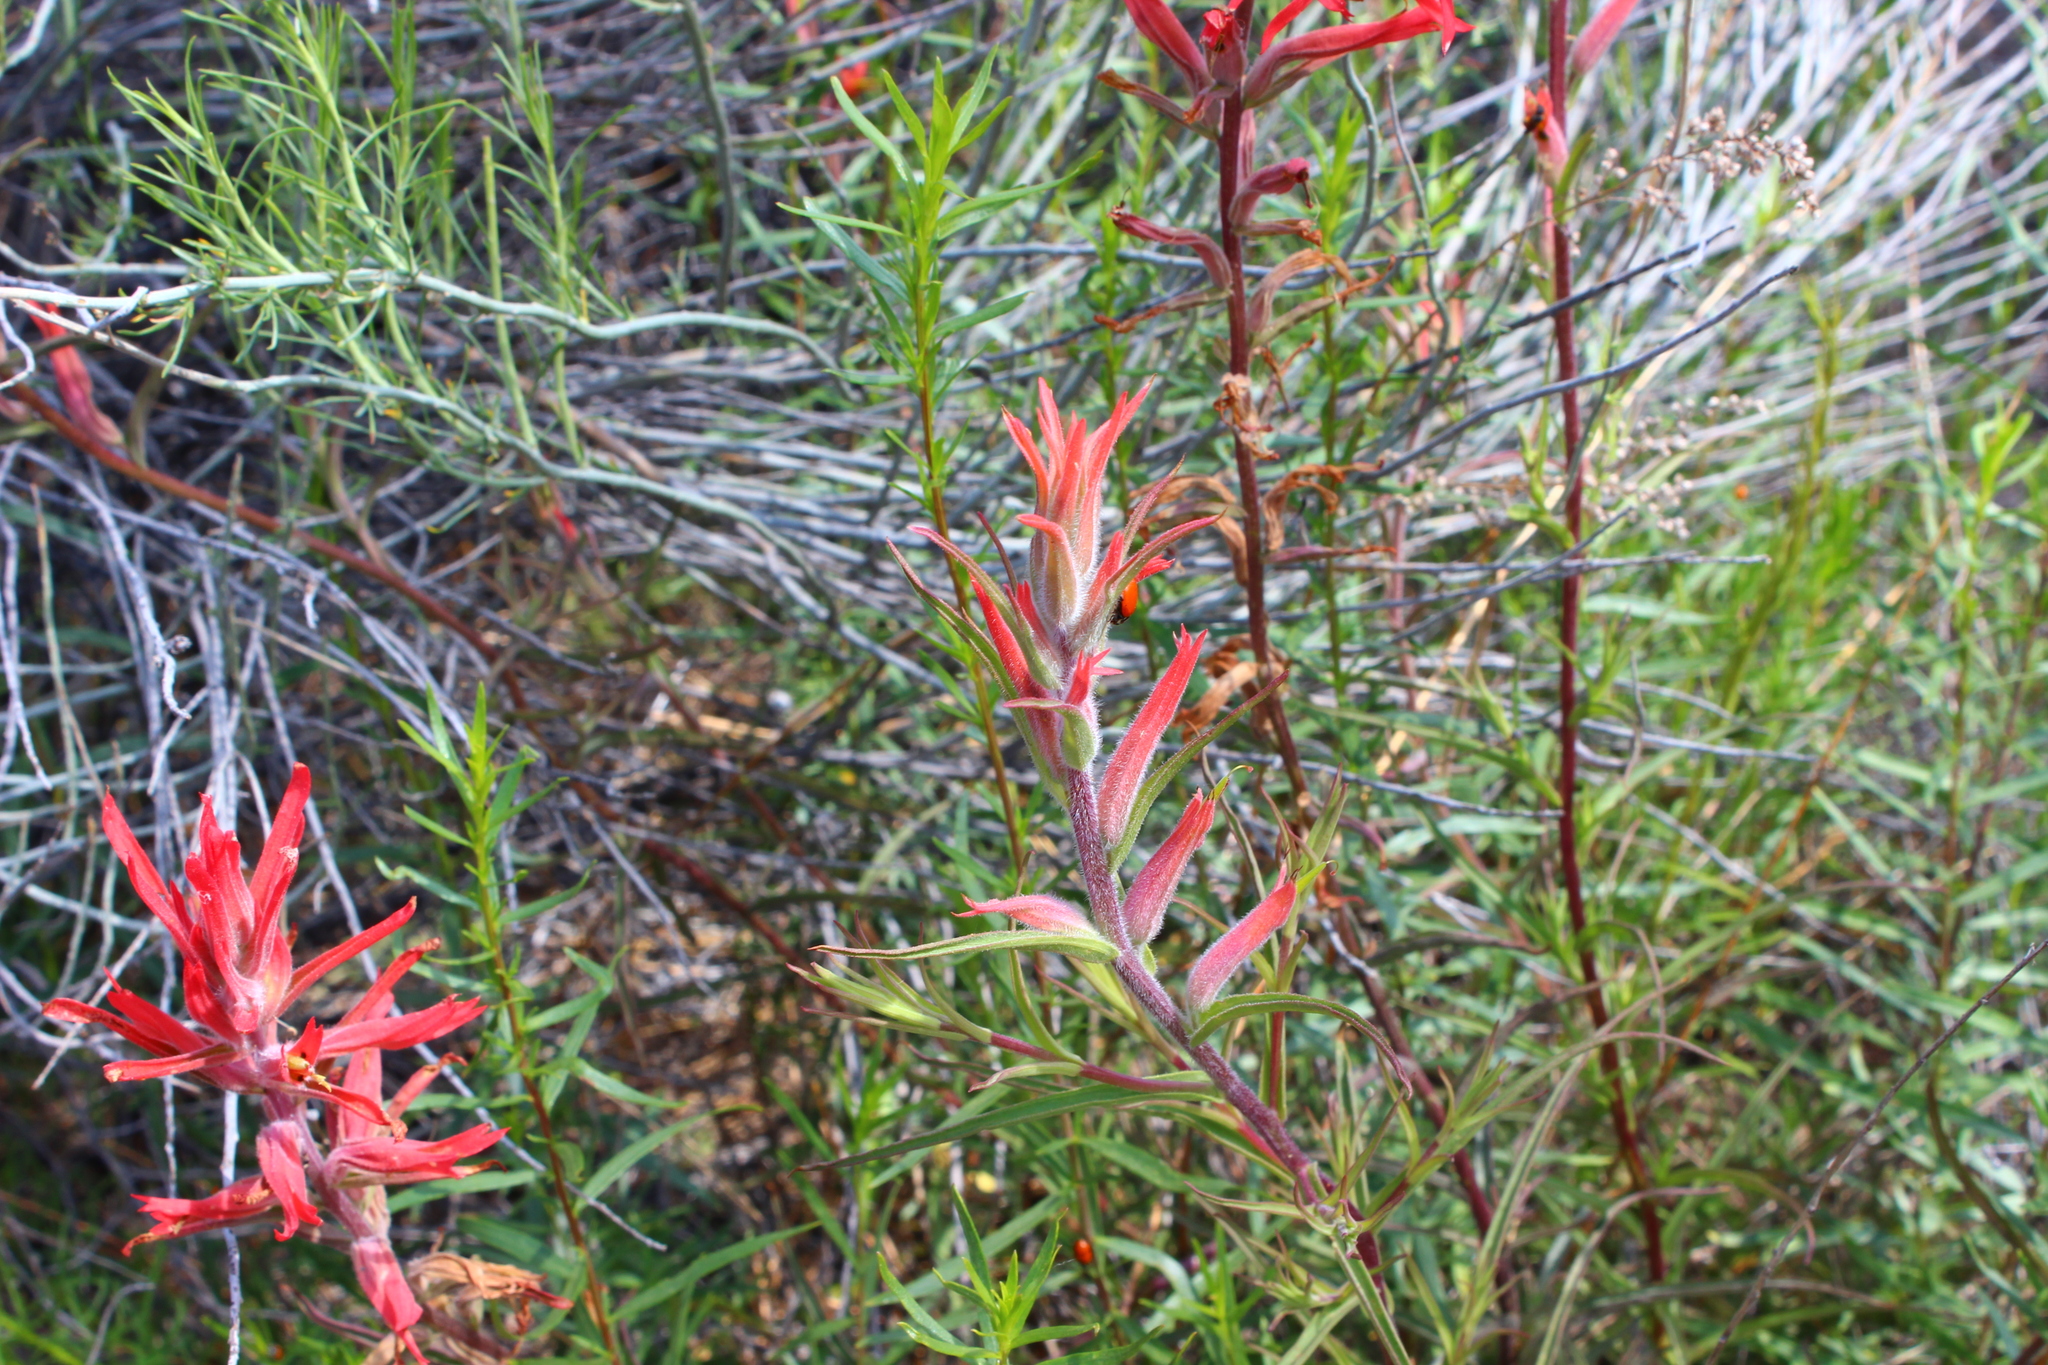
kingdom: Plantae
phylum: Tracheophyta
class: Magnoliopsida
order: Lamiales
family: Orobanchaceae
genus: Castilleja
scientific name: Castilleja subinclusa
